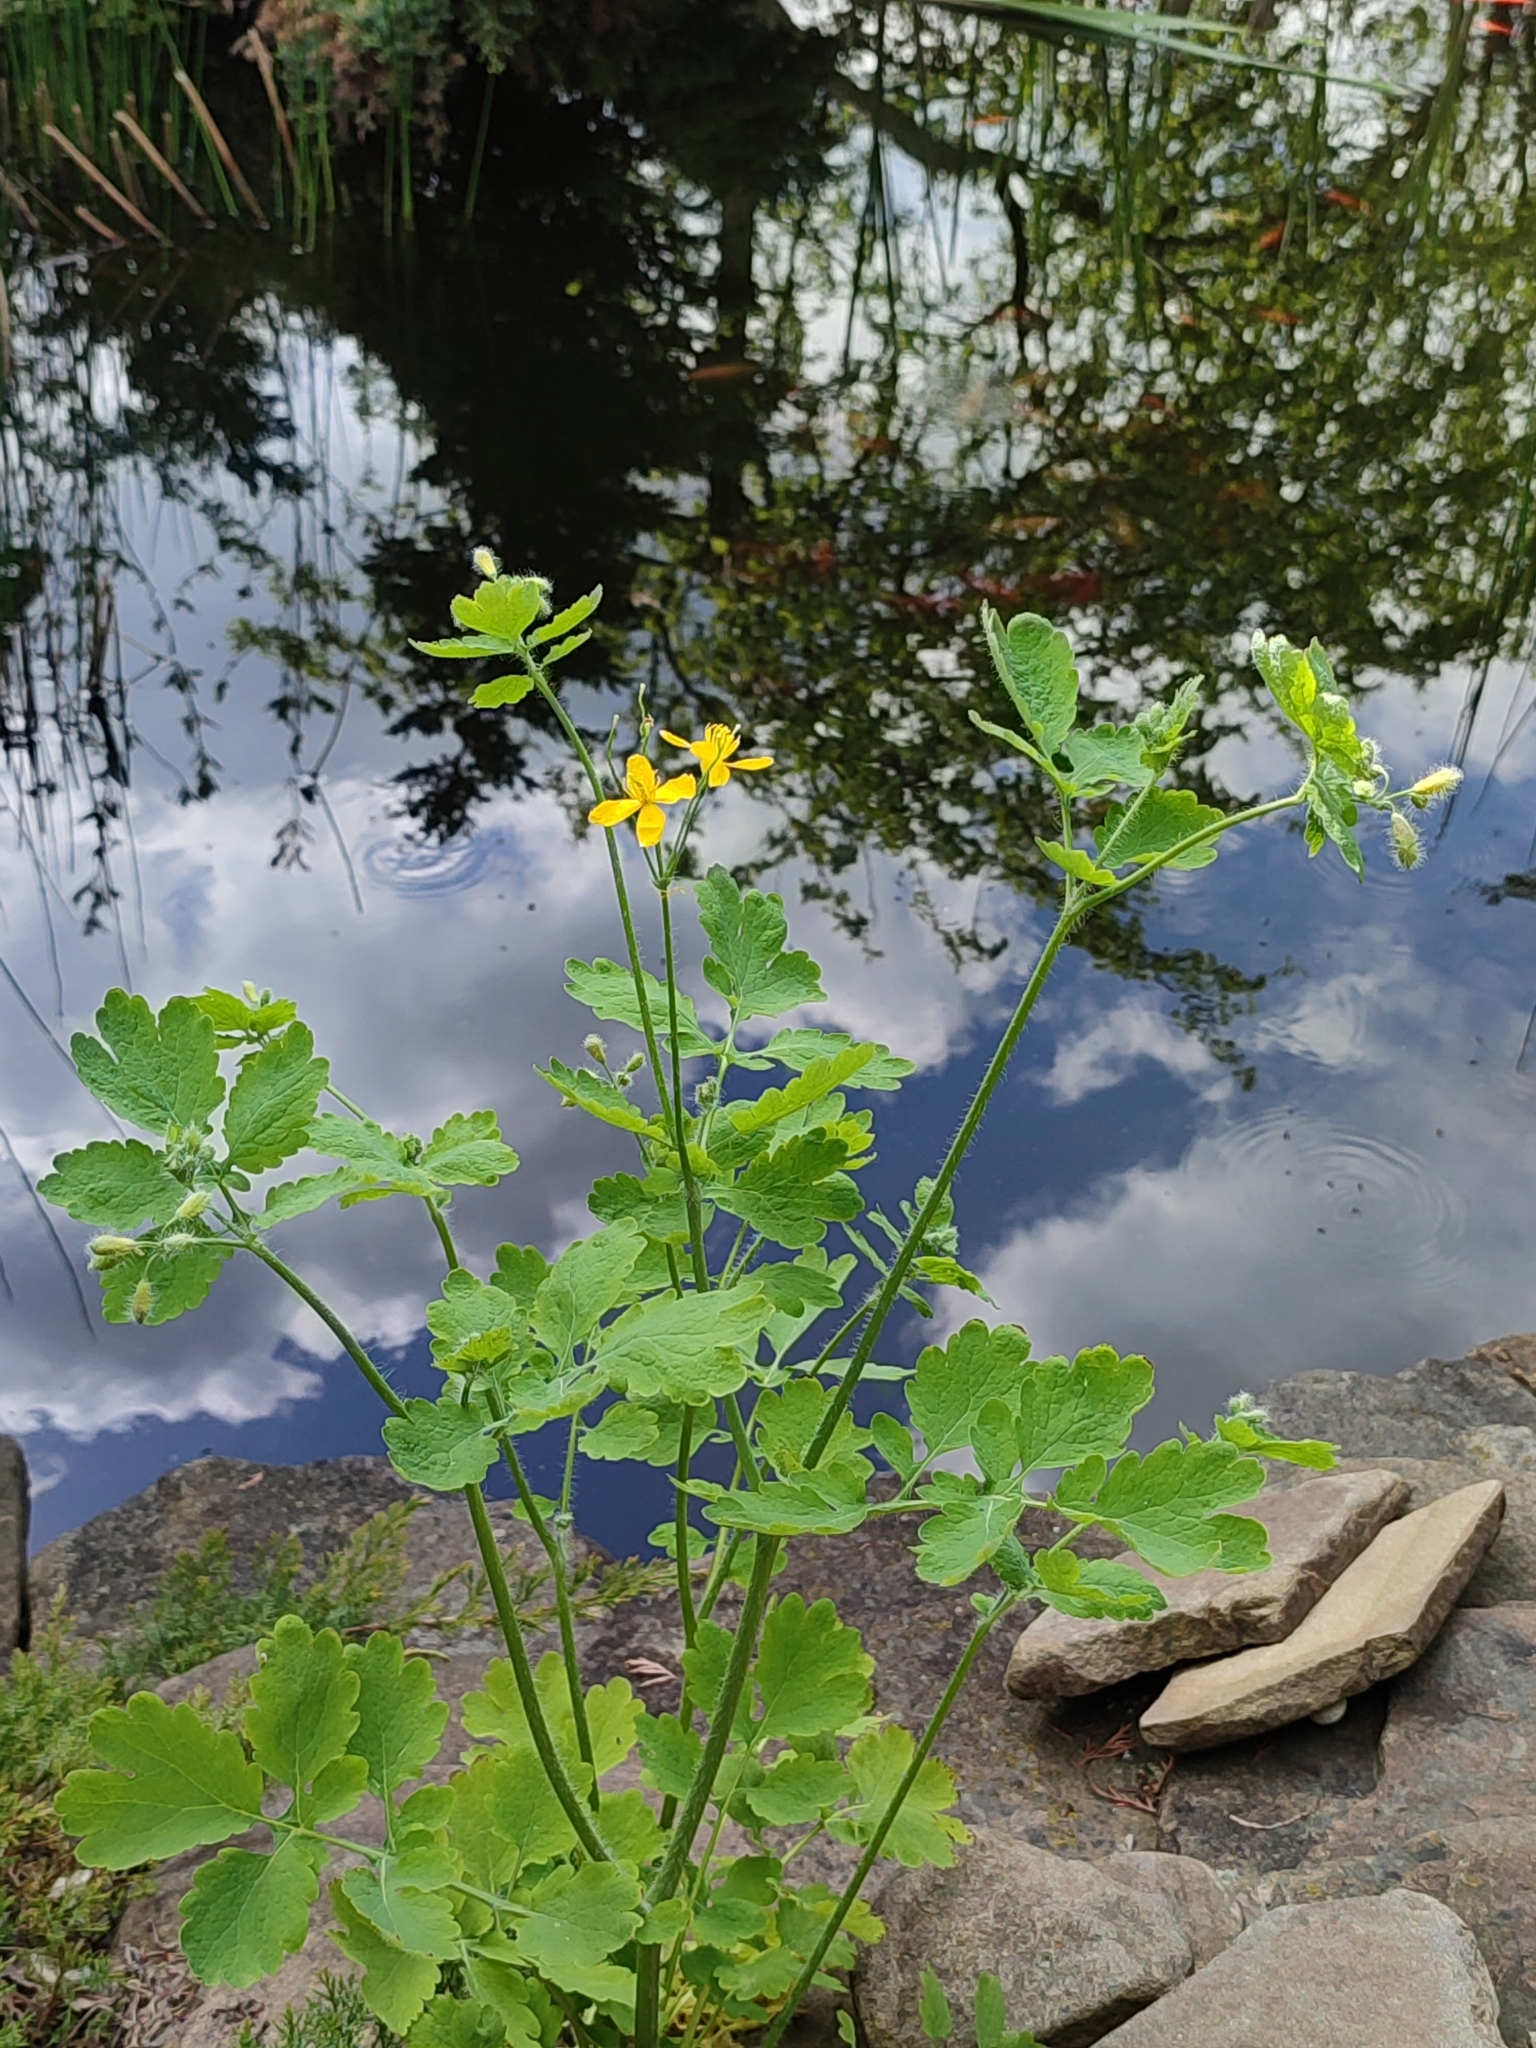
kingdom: Plantae
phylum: Tracheophyta
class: Magnoliopsida
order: Ranunculales
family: Papaveraceae
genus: Chelidonium
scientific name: Chelidonium majus
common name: Greater celandine
